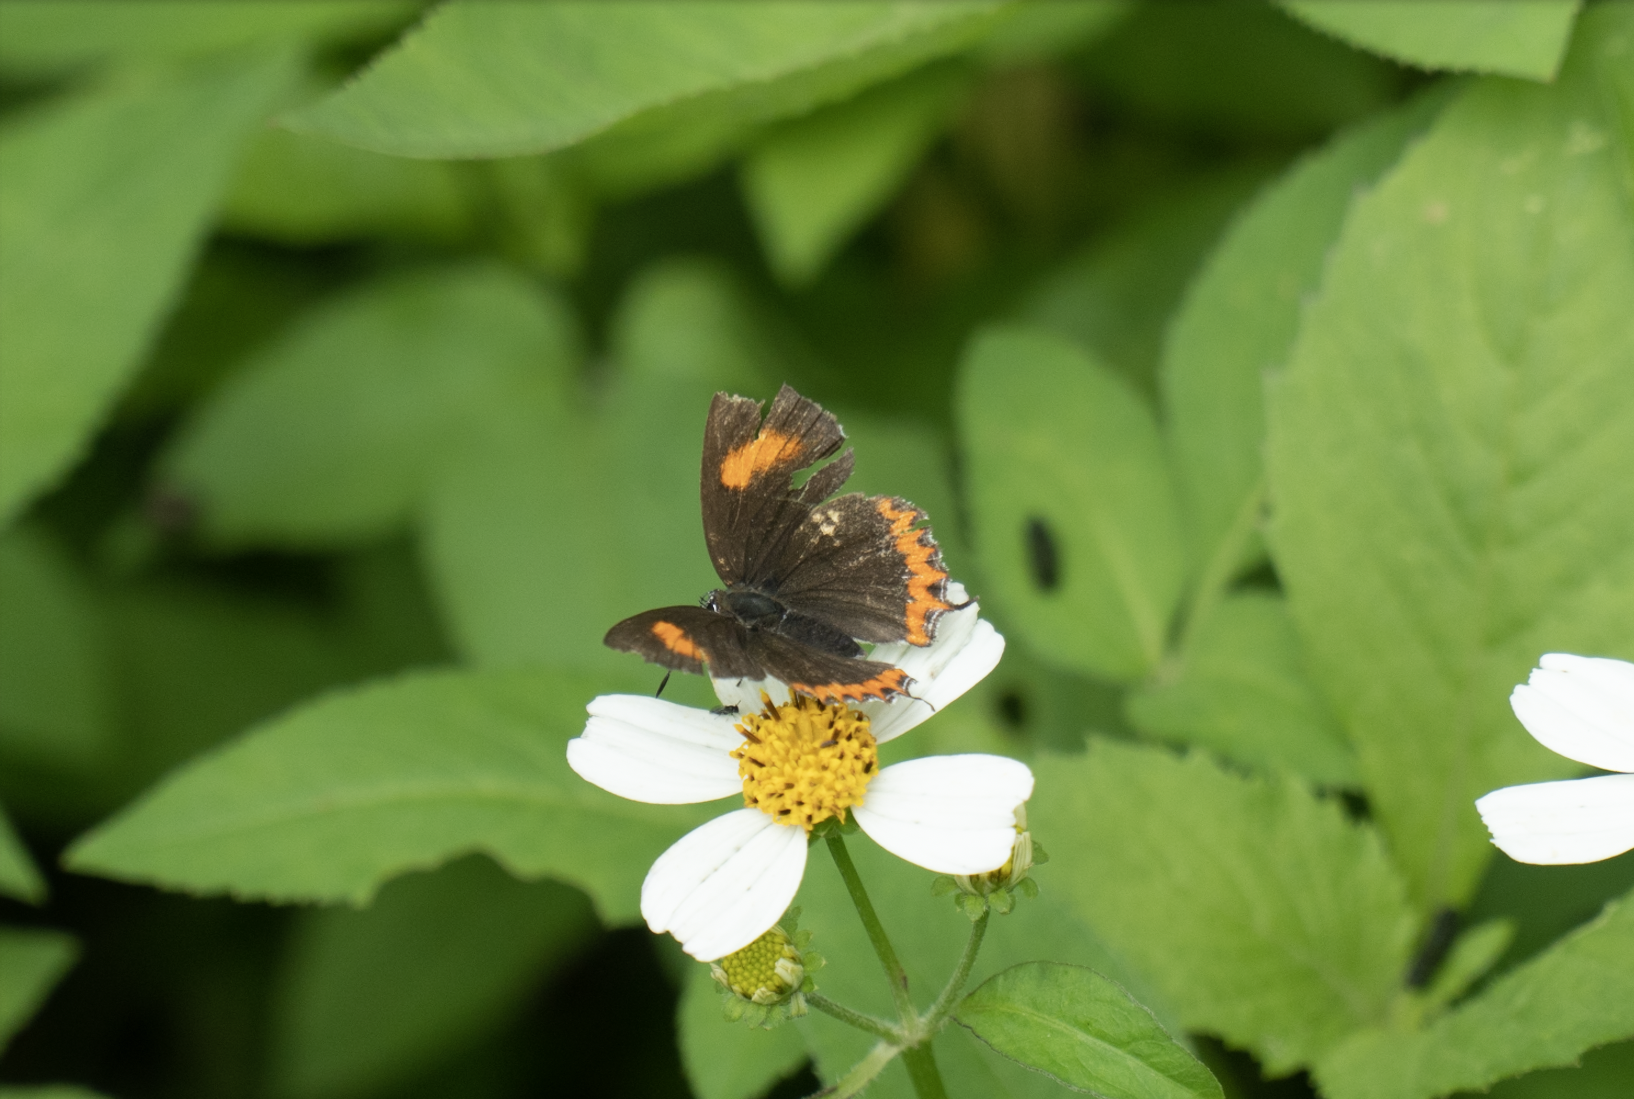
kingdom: Animalia
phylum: Arthropoda
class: Insecta
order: Lepidoptera
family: Lycaenidae
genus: Heliophorus
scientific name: Heliophorus epicles
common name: Purple sapphire
